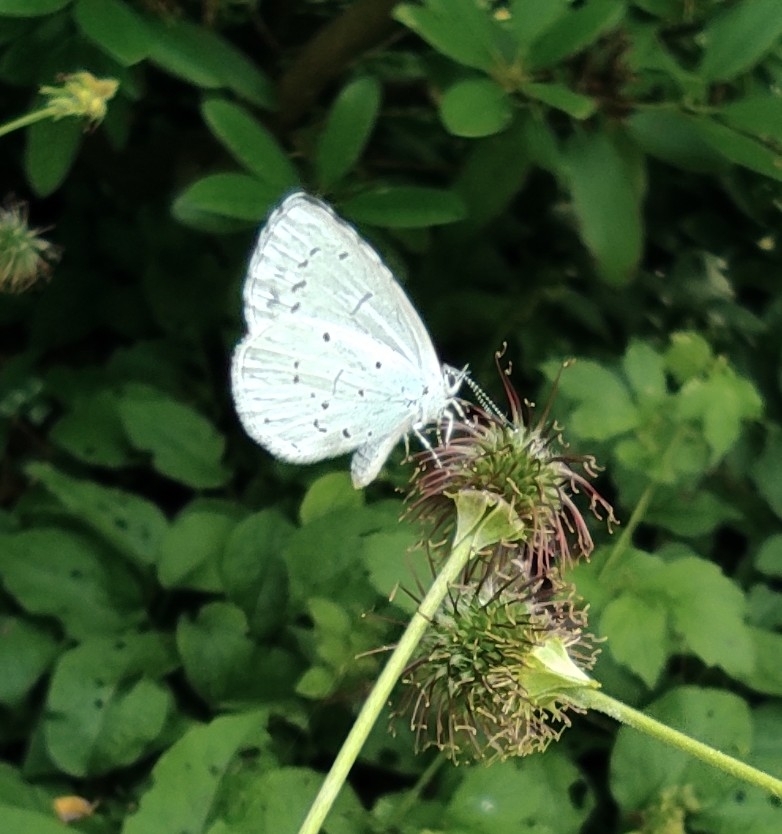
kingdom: Animalia
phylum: Arthropoda
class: Insecta
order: Lepidoptera
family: Lycaenidae
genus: Celastrina
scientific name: Celastrina argiolus
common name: Holly blue
